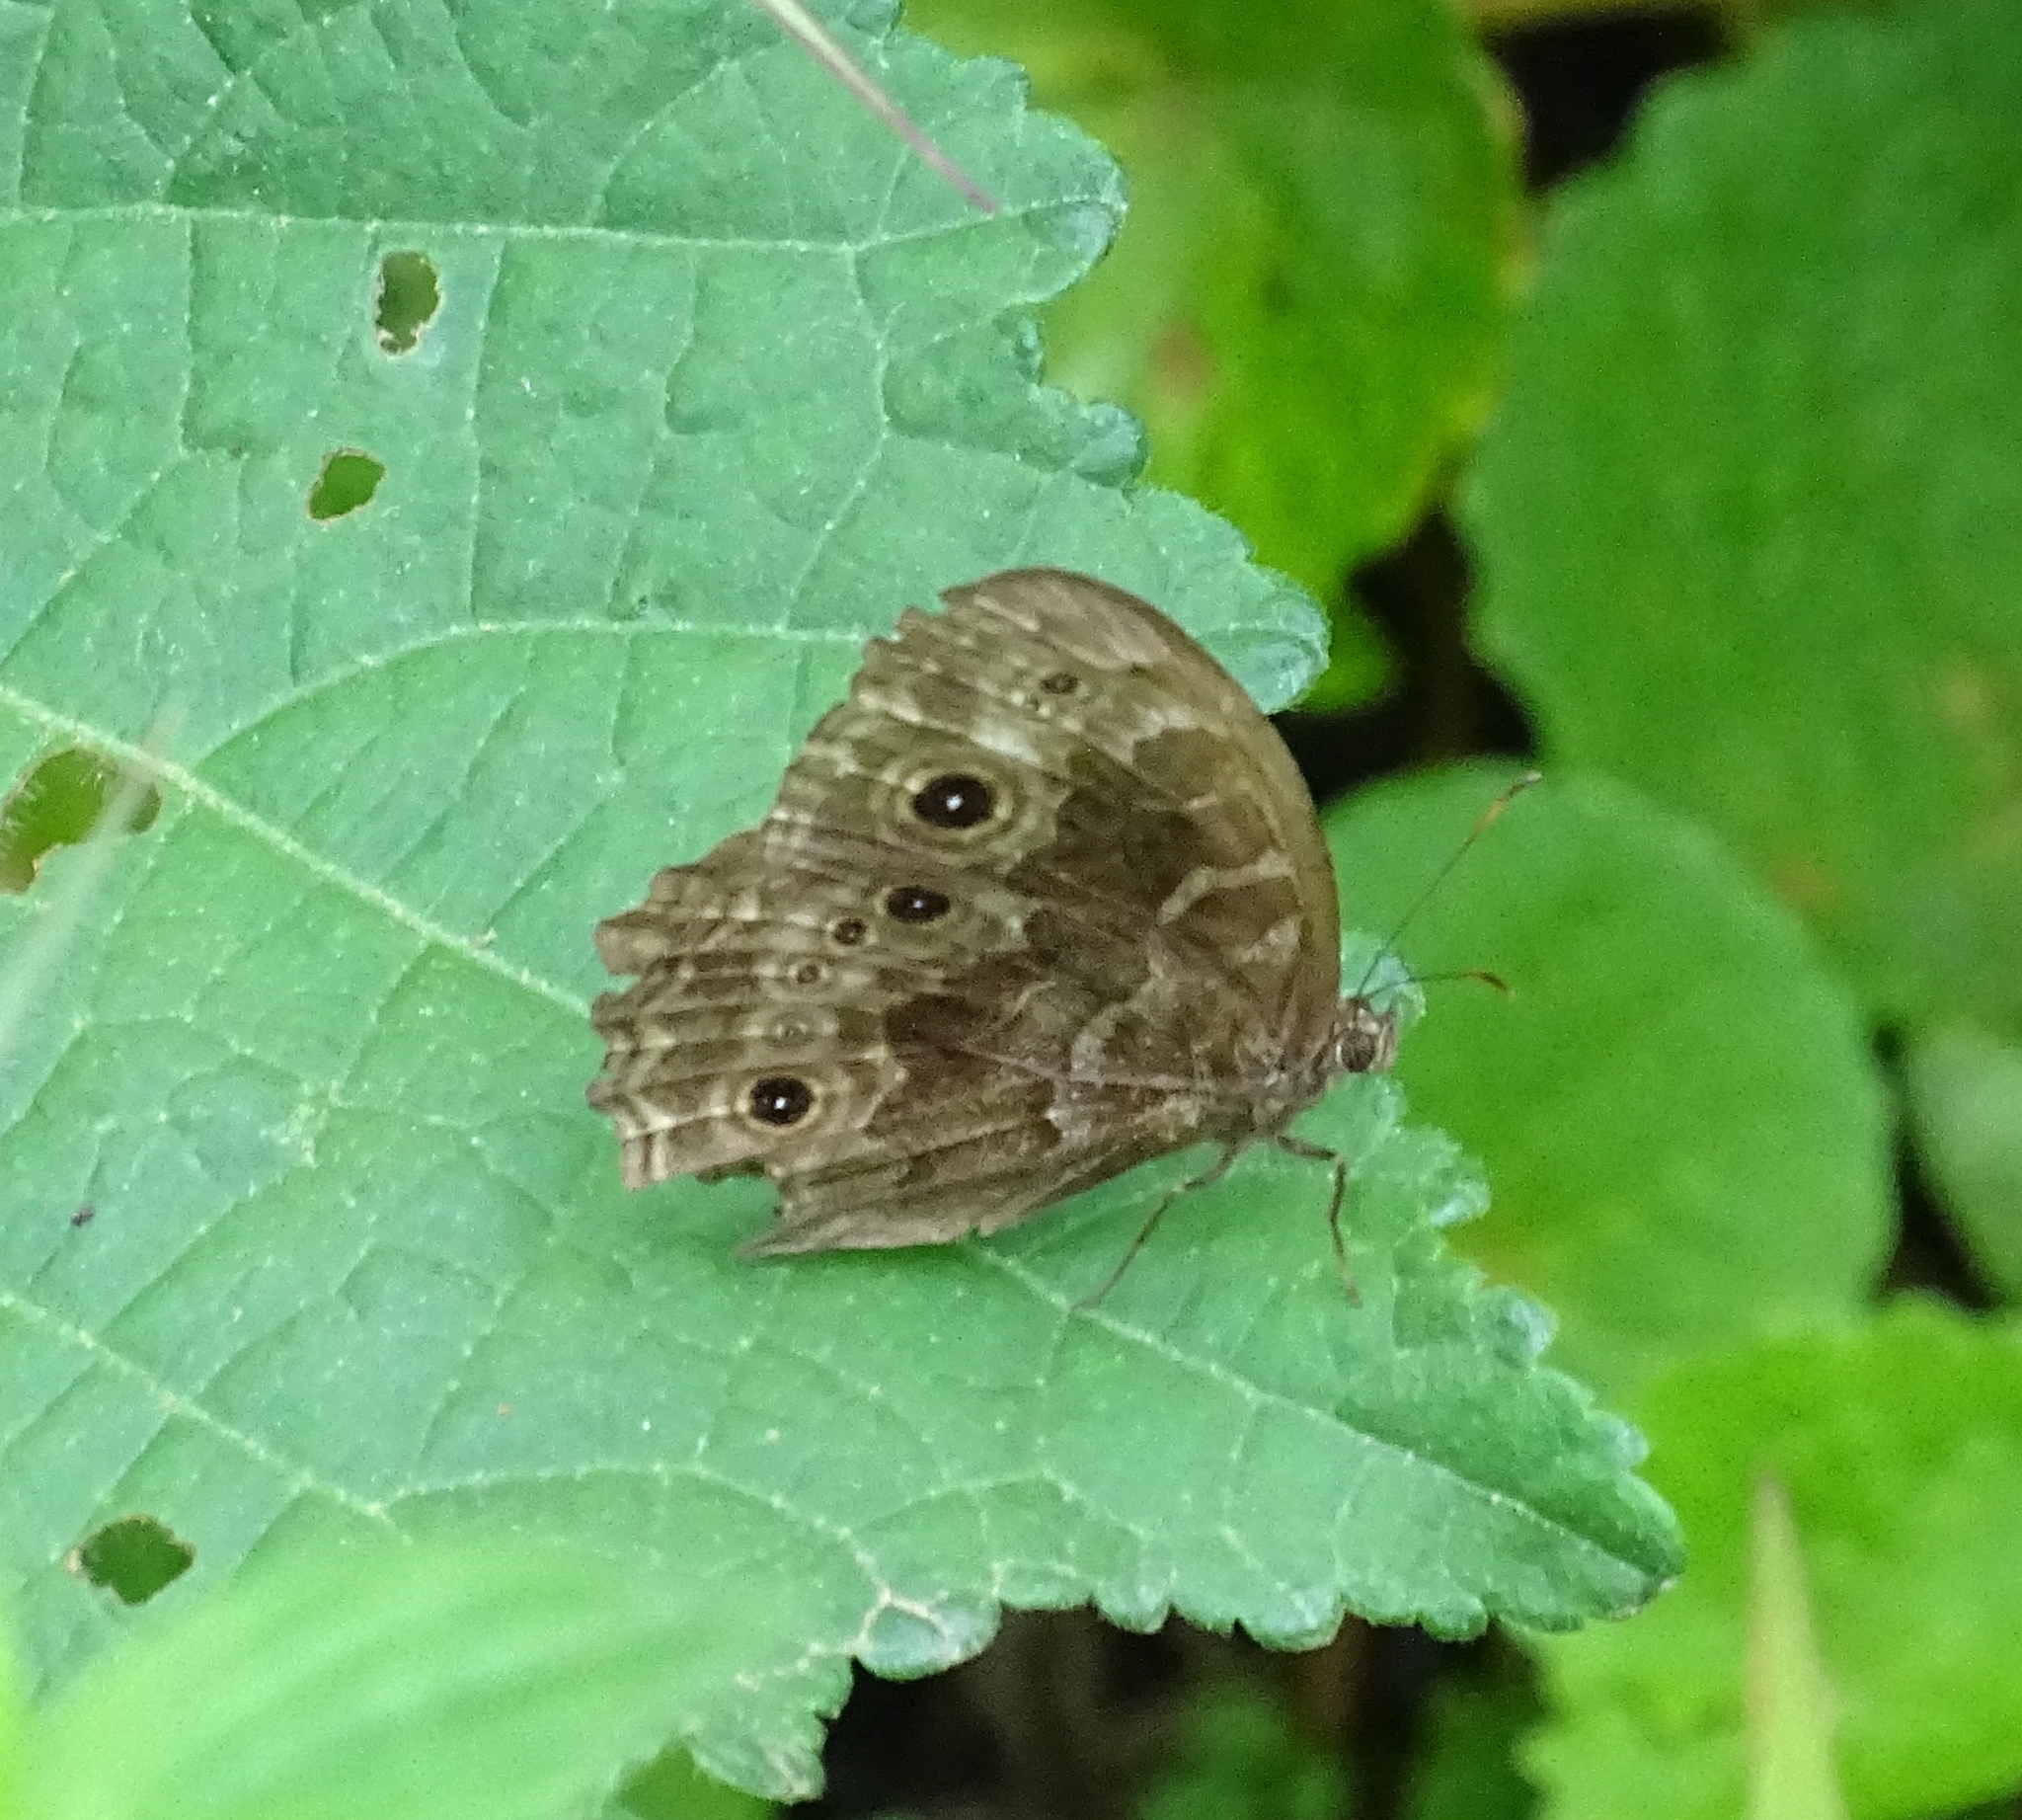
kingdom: Animalia
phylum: Arthropoda
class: Insecta
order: Lepidoptera
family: Nymphalidae
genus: Bicyclus
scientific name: Bicyclus dentata
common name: Dentate bush brown
